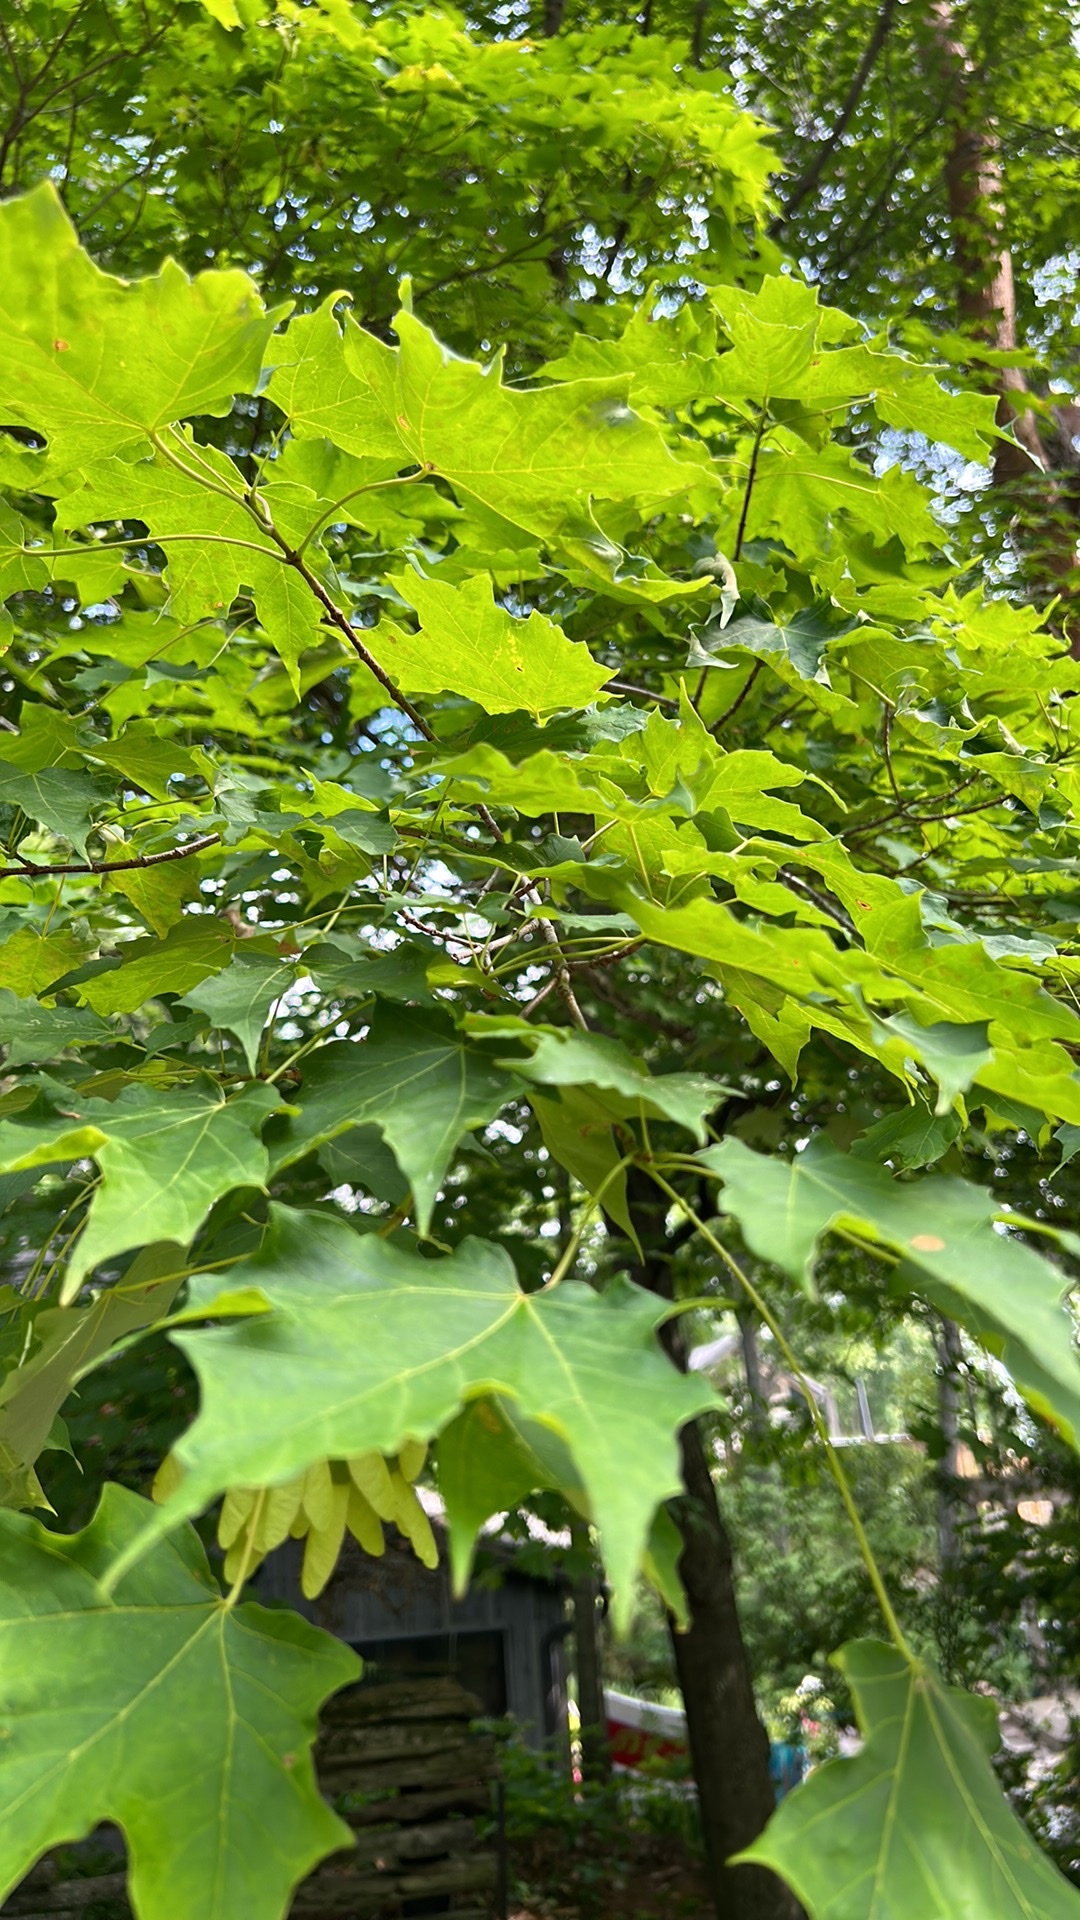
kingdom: Plantae
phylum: Tracheophyta
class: Magnoliopsida
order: Sapindales
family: Sapindaceae
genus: Acer
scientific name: Acer saccharum
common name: Sugar maple
